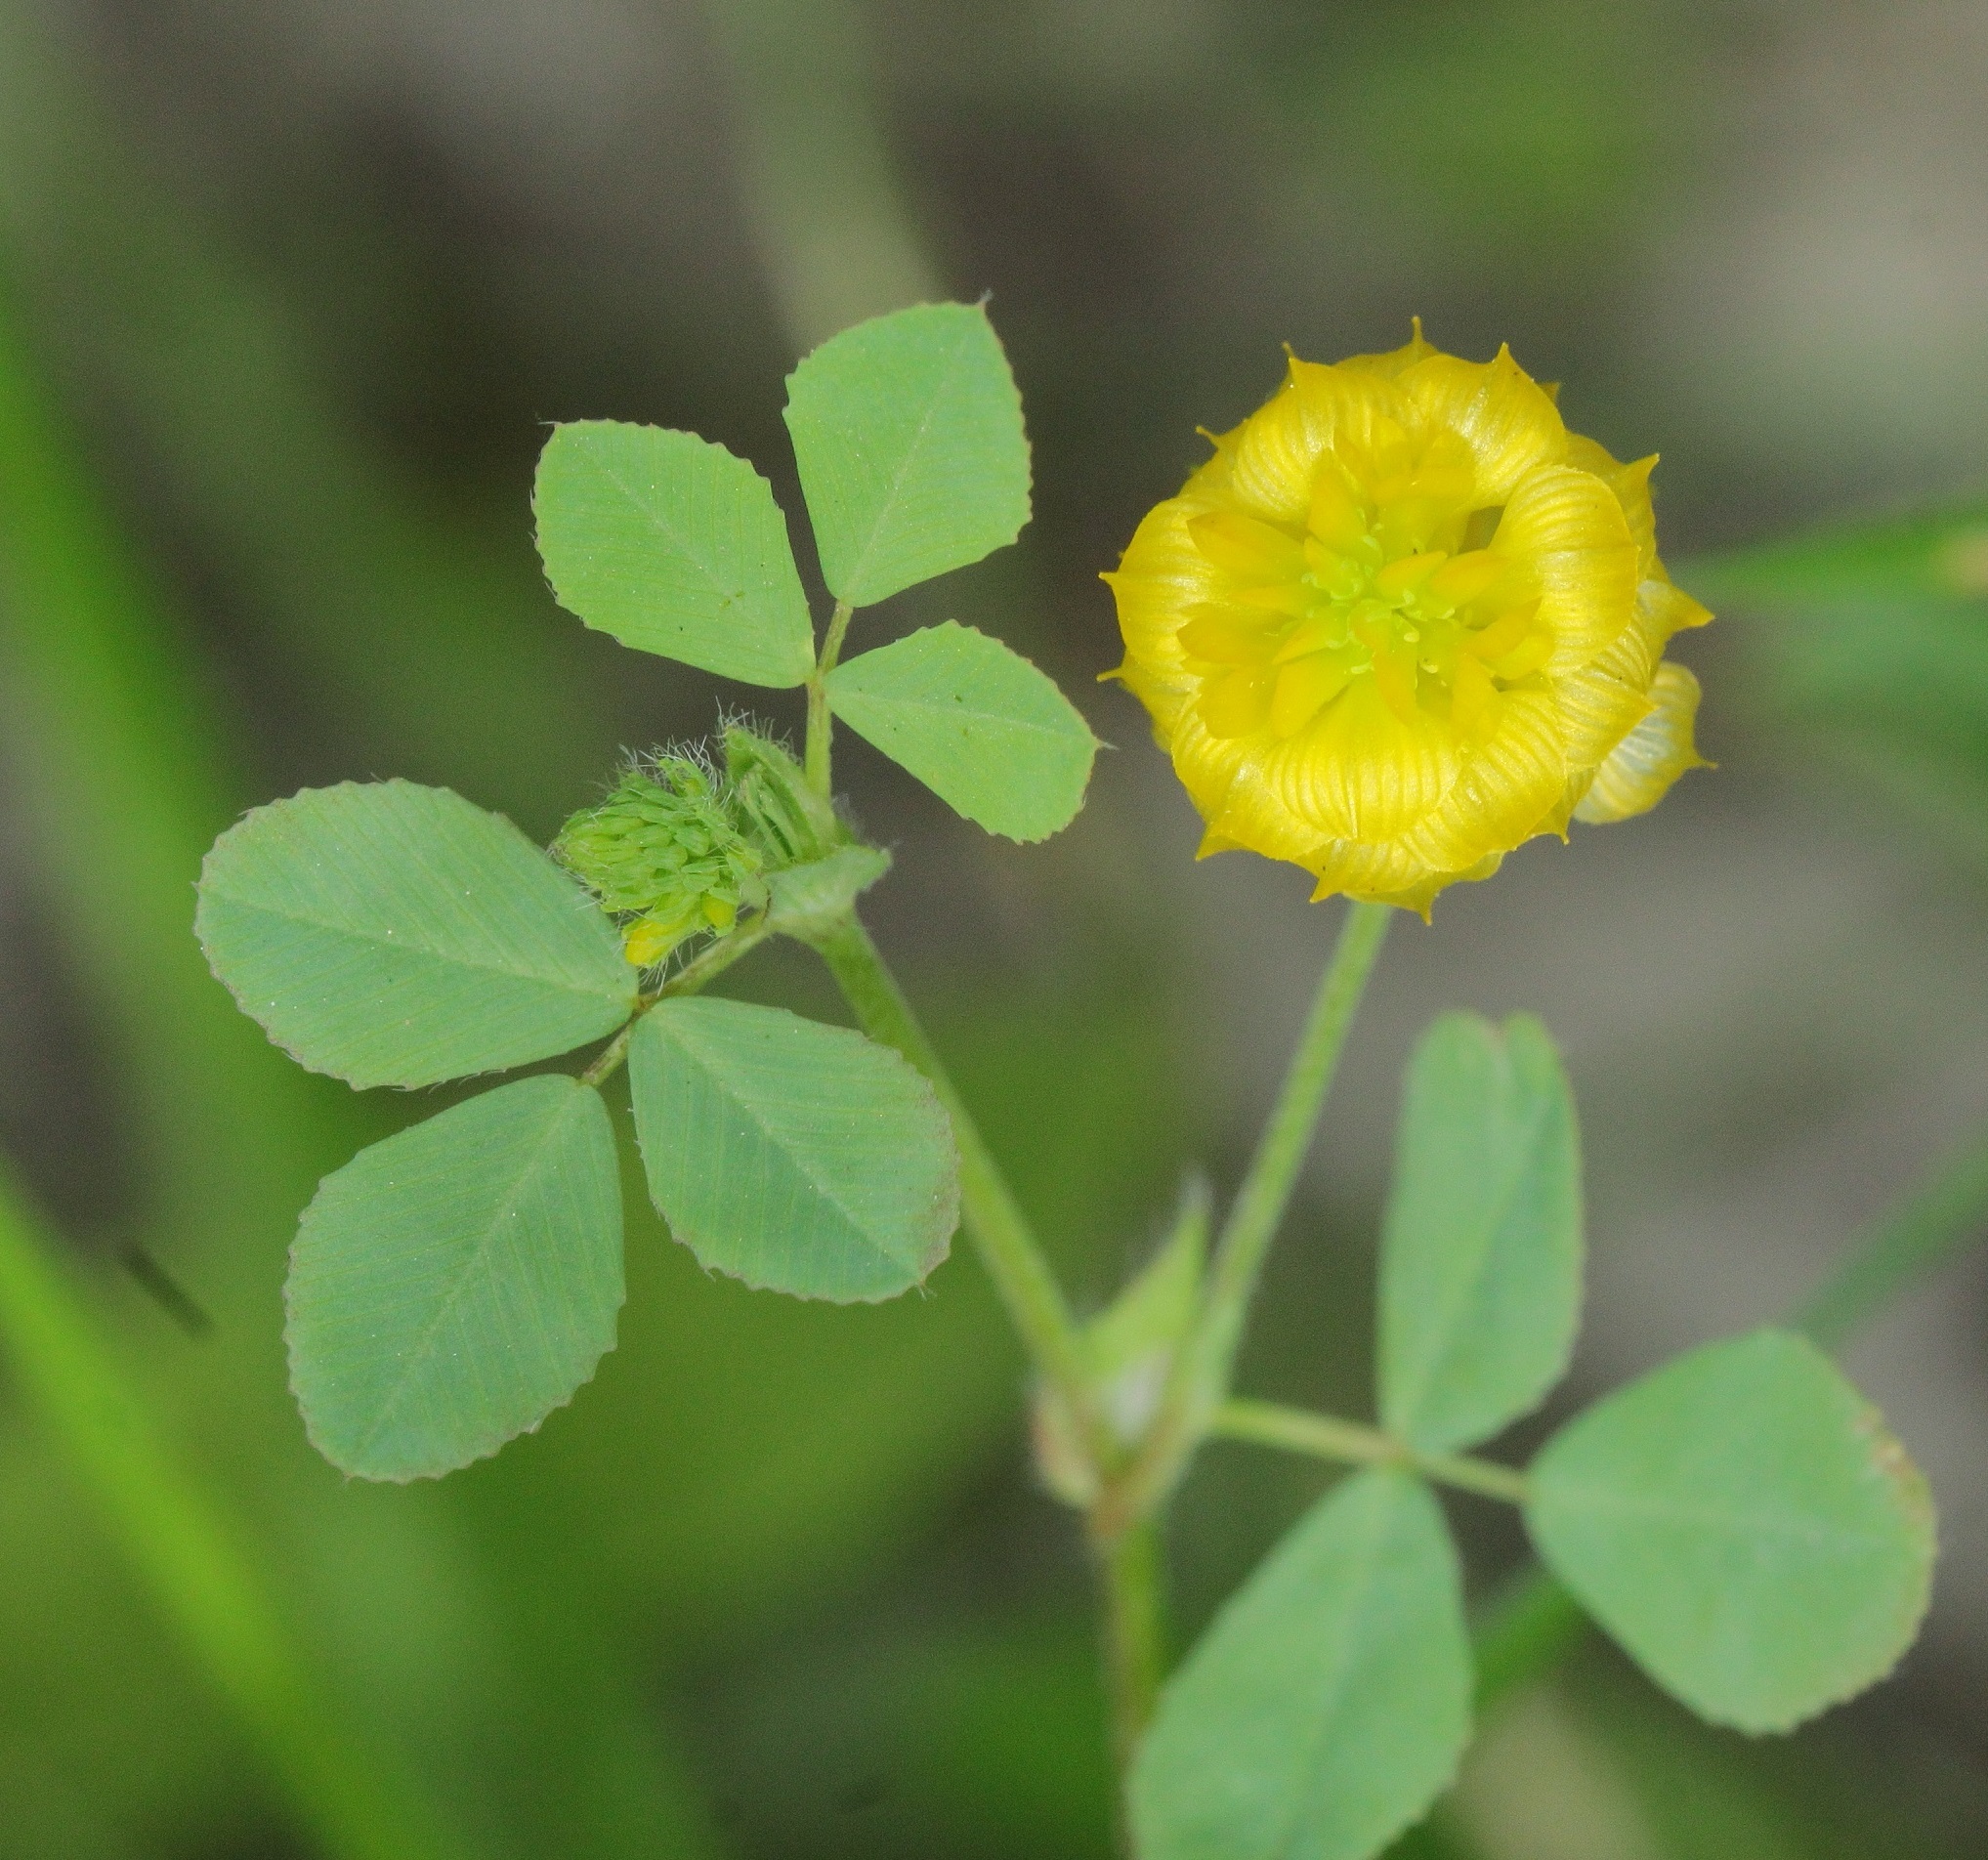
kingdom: Plantae
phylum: Tracheophyta
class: Magnoliopsida
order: Fabales
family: Fabaceae
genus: Trifolium
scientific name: Trifolium campestre
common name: Field clover
